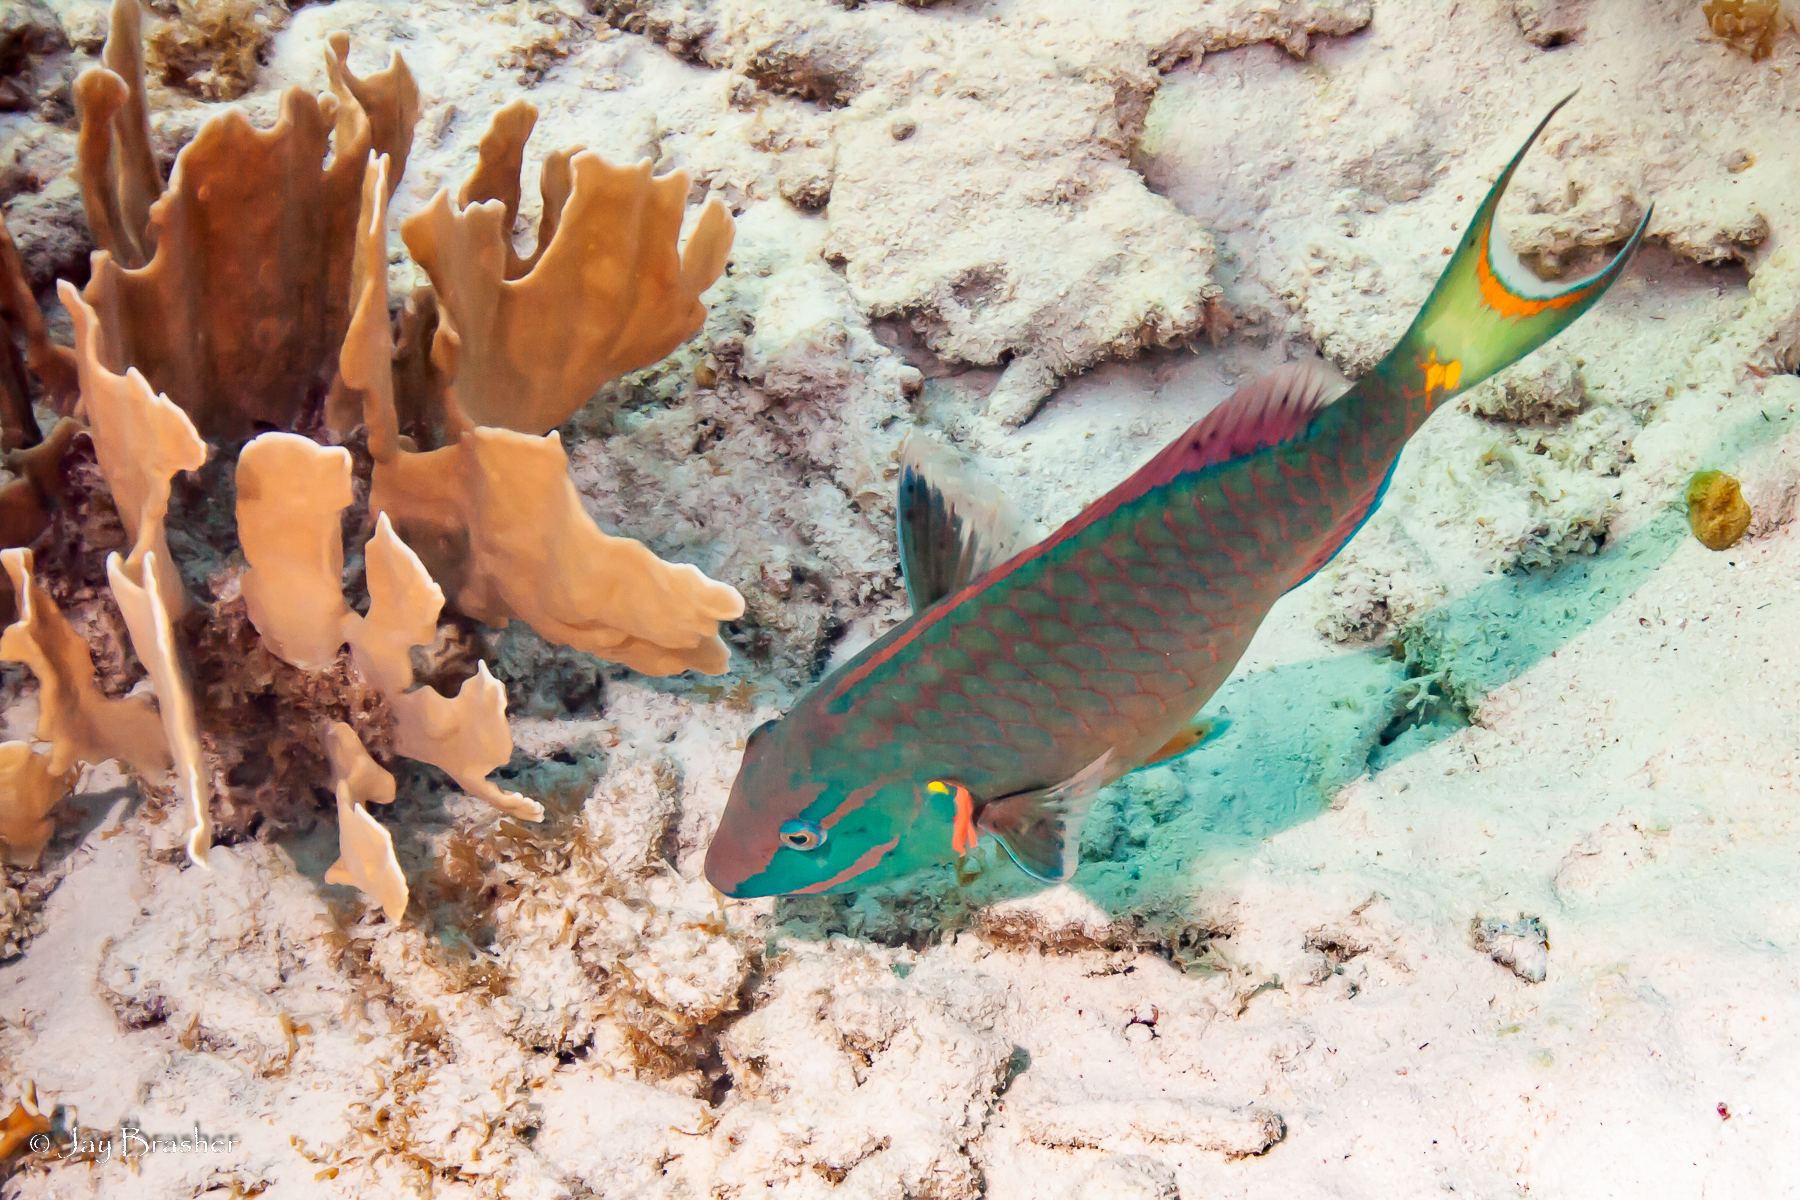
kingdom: Animalia
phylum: Chordata
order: Perciformes
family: Scaridae
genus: Sparisoma
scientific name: Sparisoma viride
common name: Stoplight parrotfish
